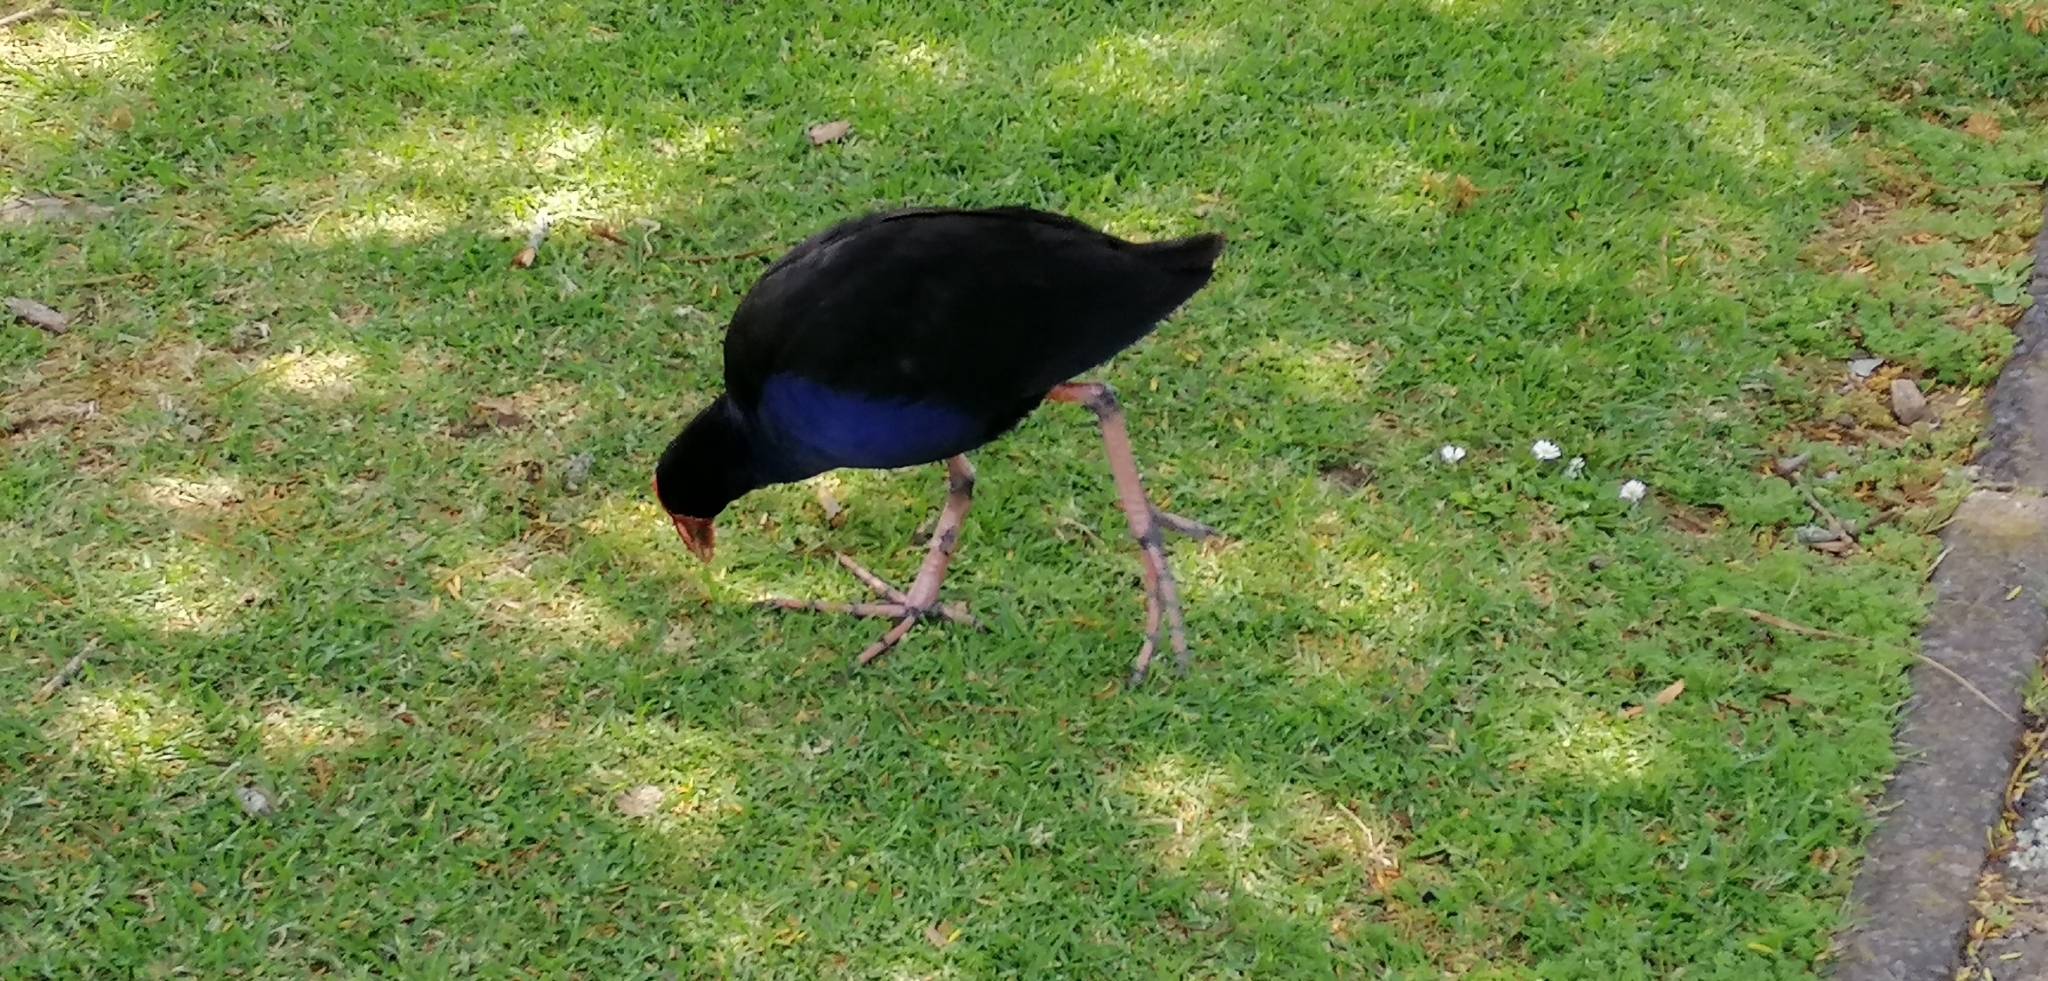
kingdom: Animalia
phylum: Chordata
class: Aves
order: Gruiformes
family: Rallidae
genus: Porphyrio
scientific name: Porphyrio melanotus
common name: Australasian swamphen
